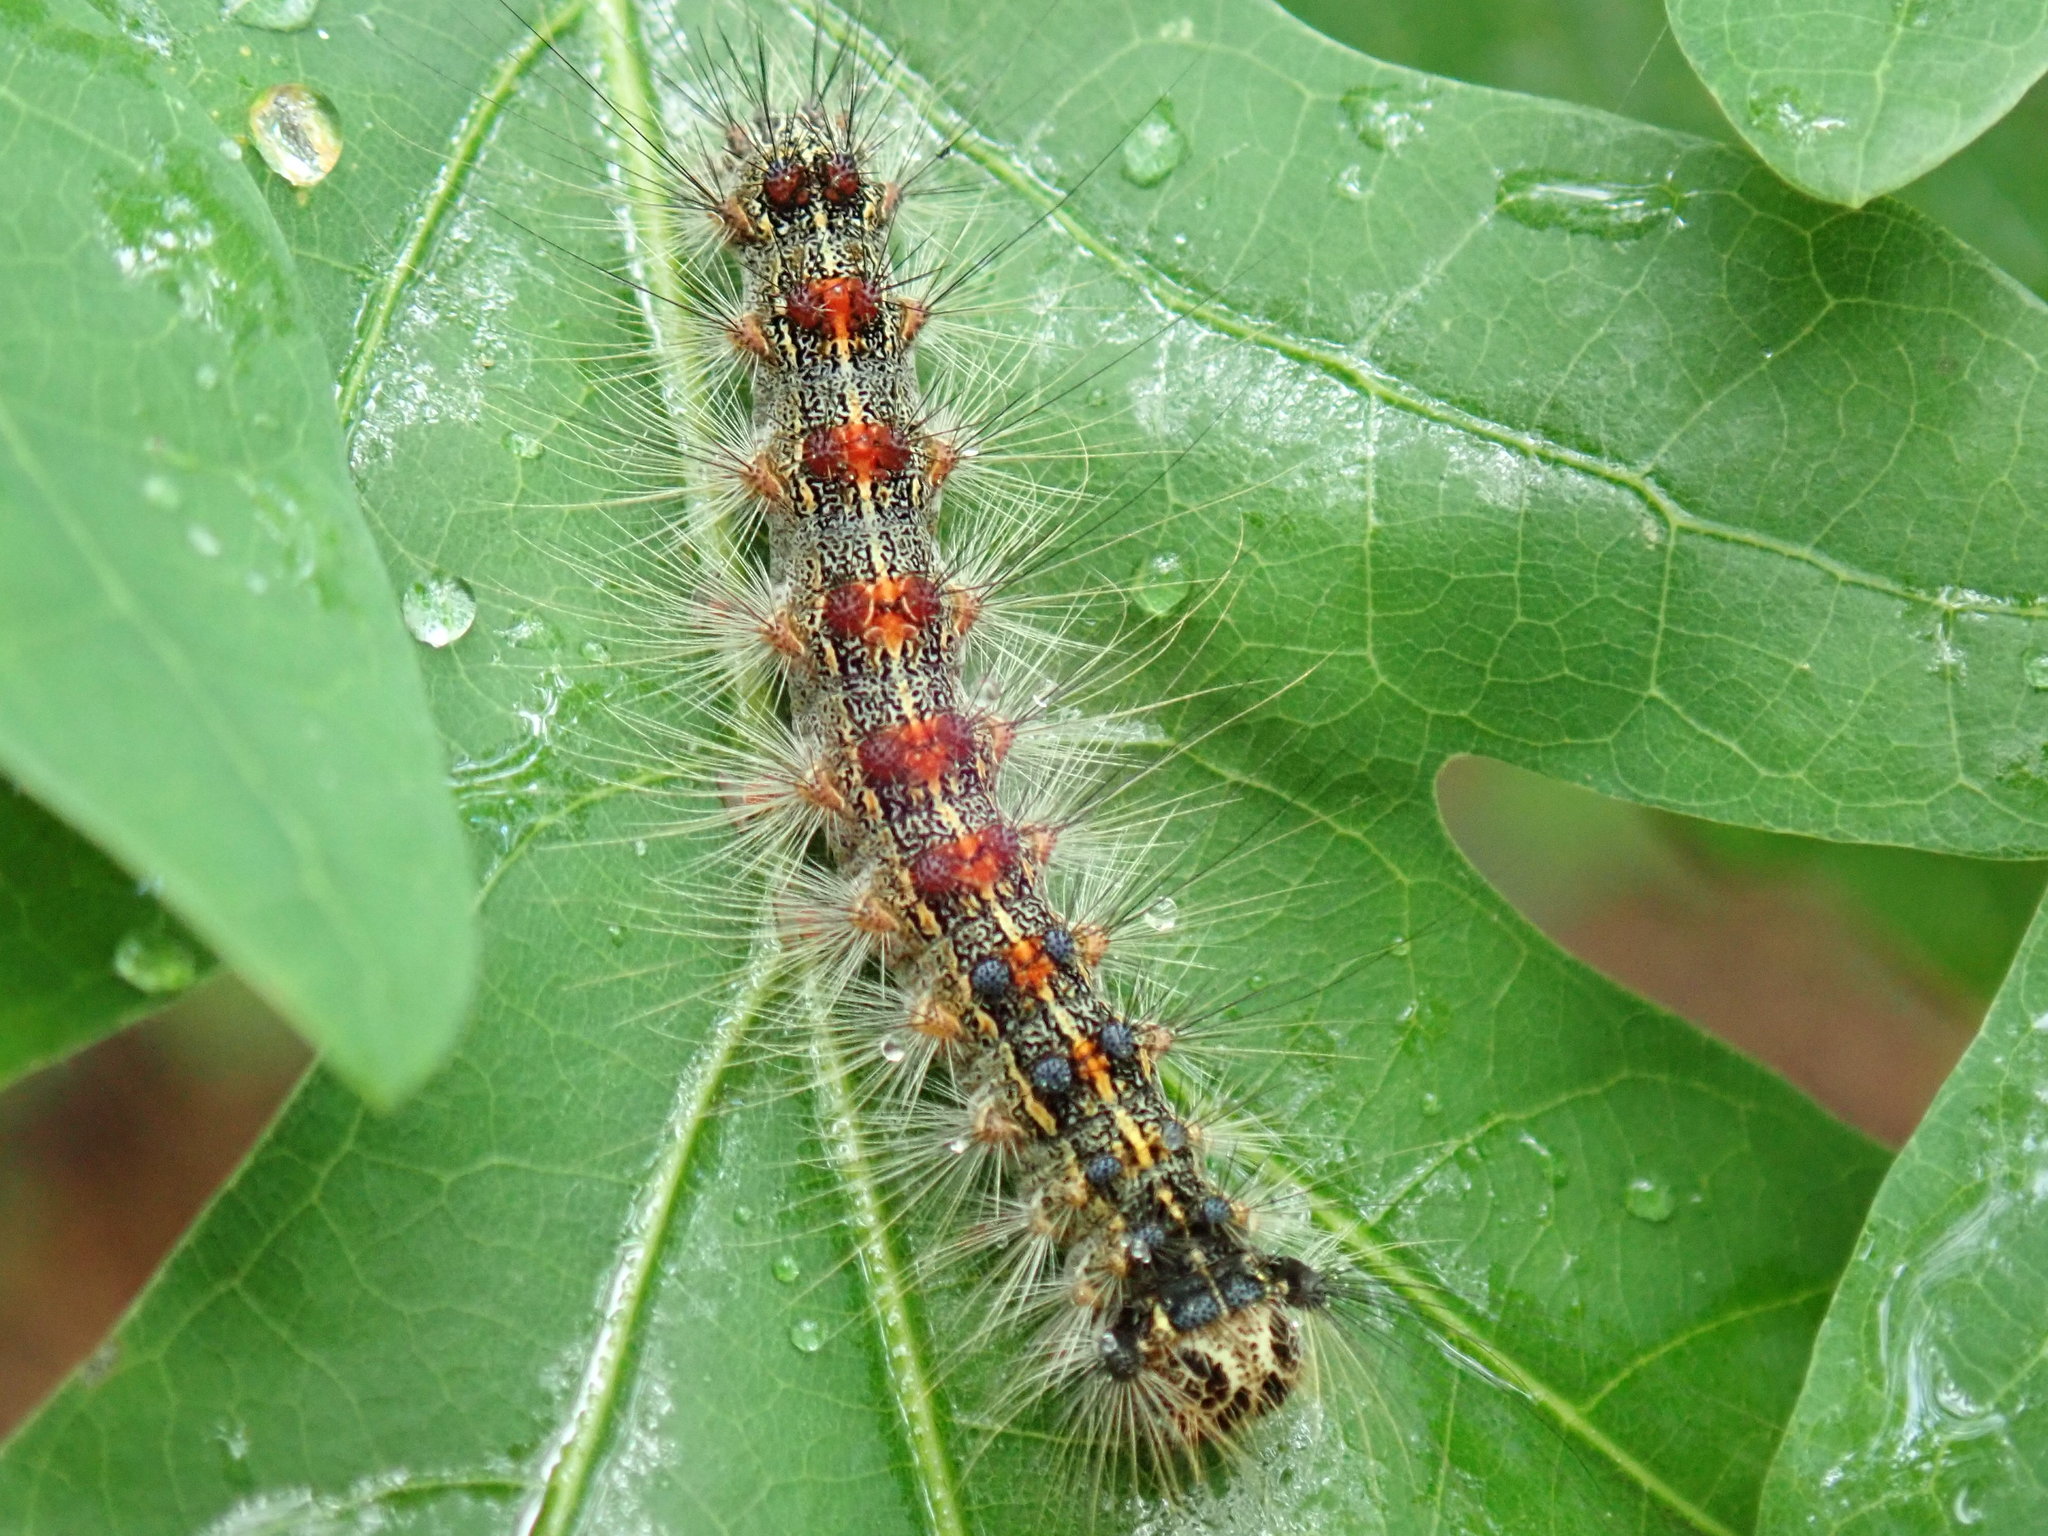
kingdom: Animalia
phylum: Arthropoda
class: Insecta
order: Lepidoptera
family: Erebidae
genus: Lymantria
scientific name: Lymantria dispar
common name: Gypsy moth
